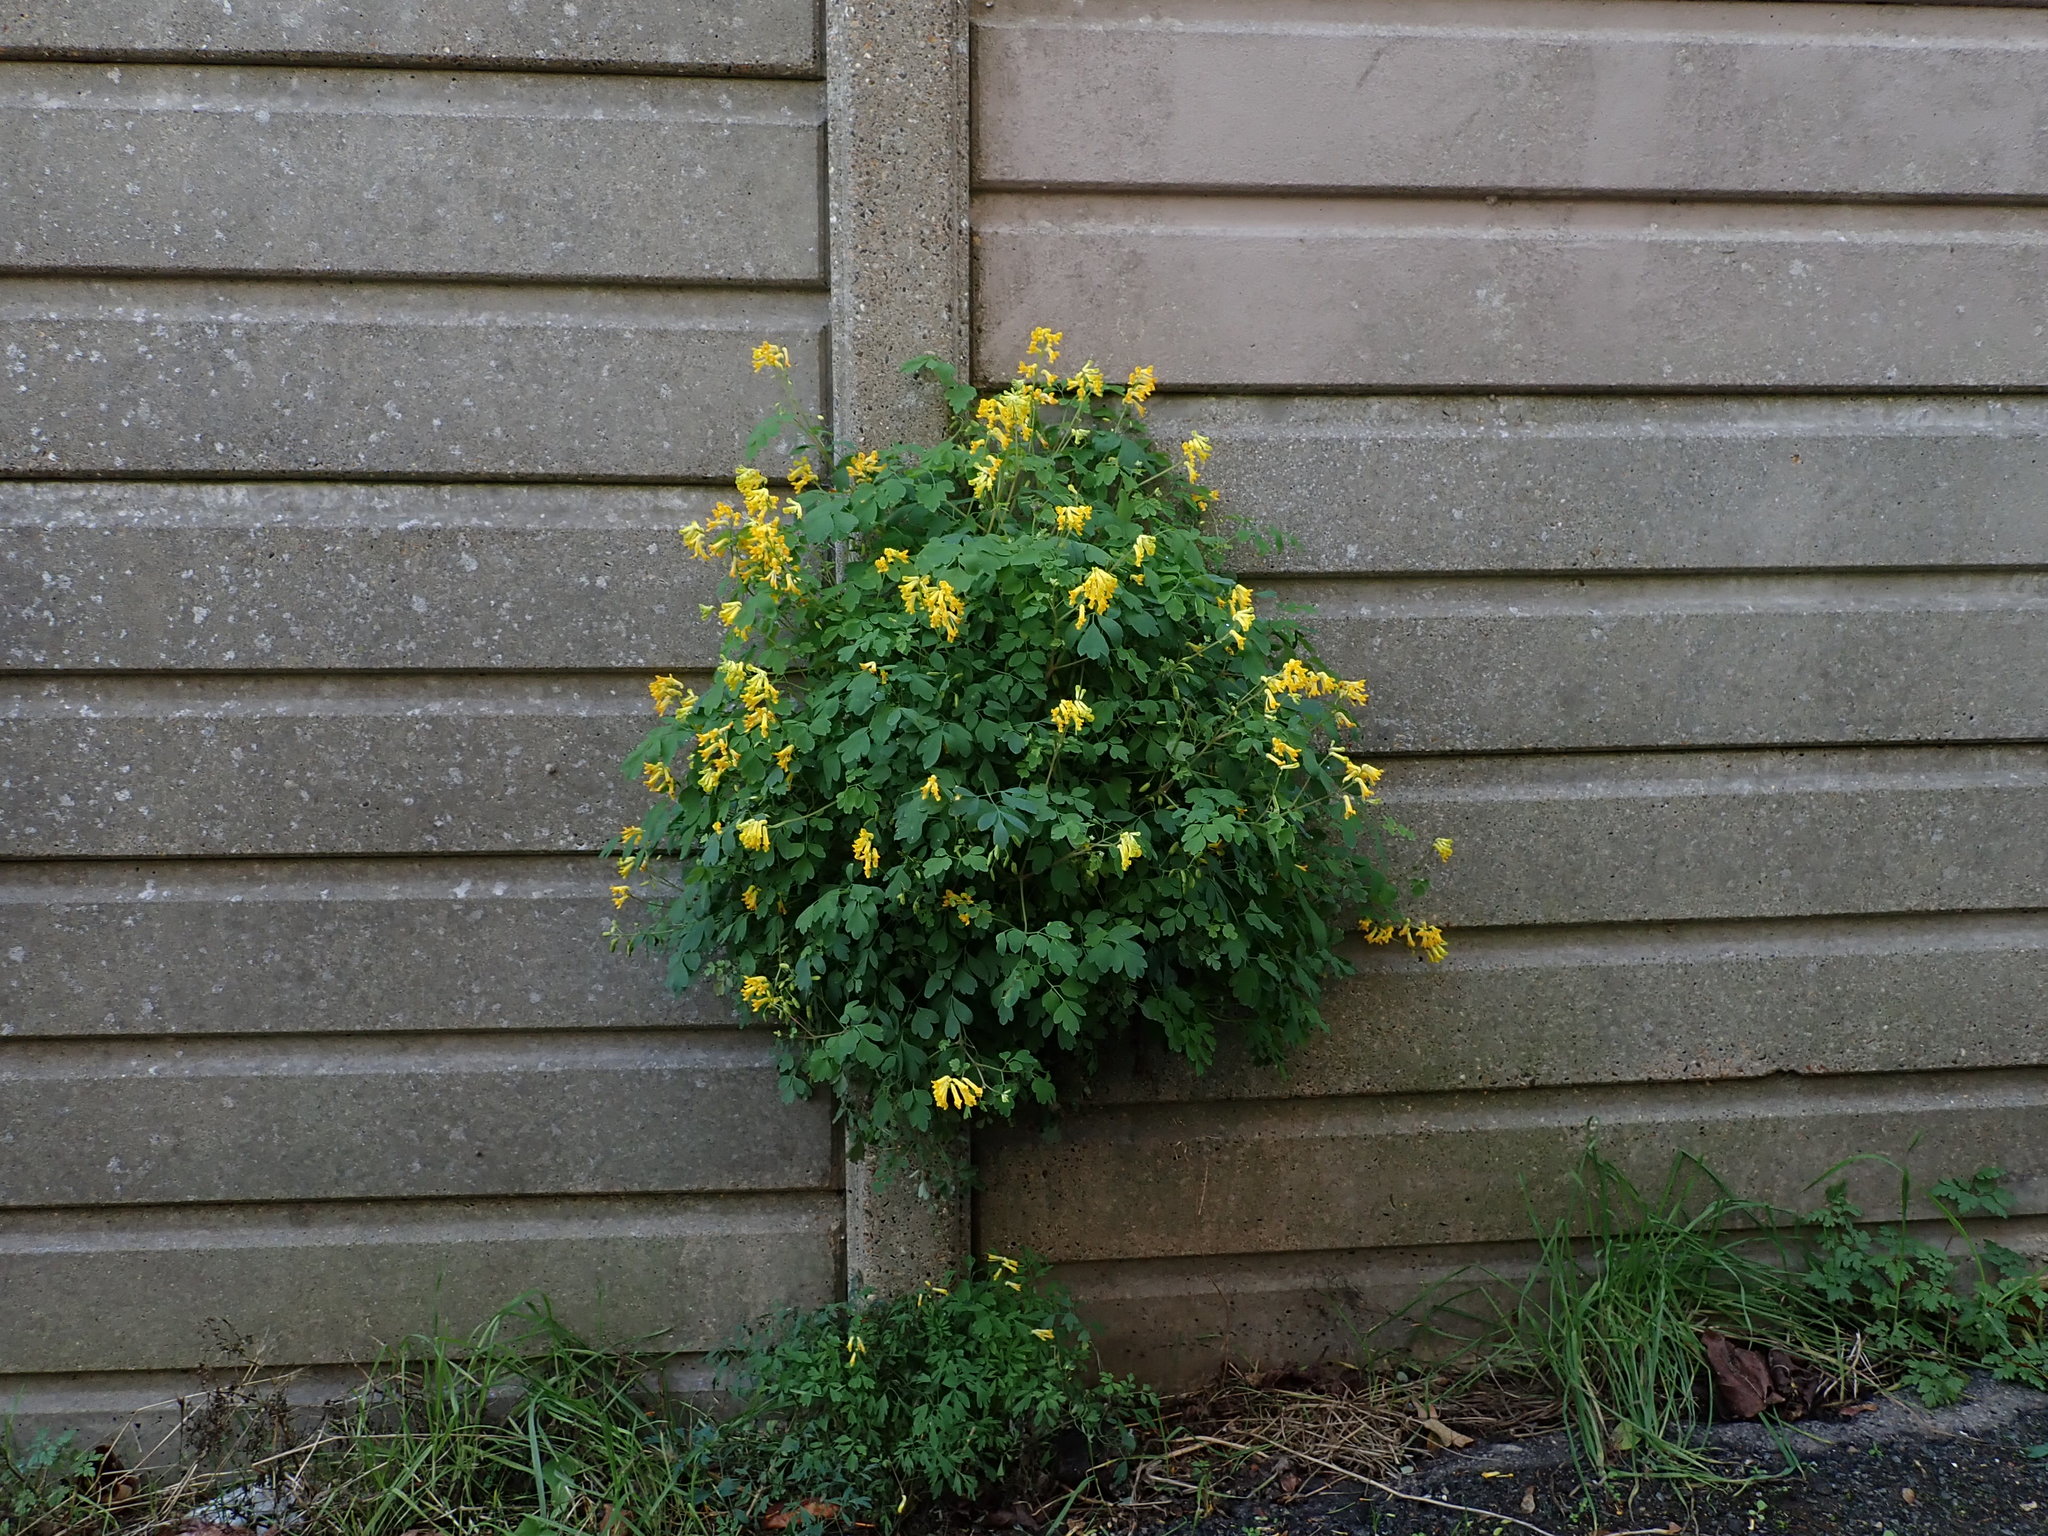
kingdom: Plantae
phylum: Tracheophyta
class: Magnoliopsida
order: Ranunculales
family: Papaveraceae
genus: Pseudofumaria
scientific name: Pseudofumaria lutea
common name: Yellow corydalis
